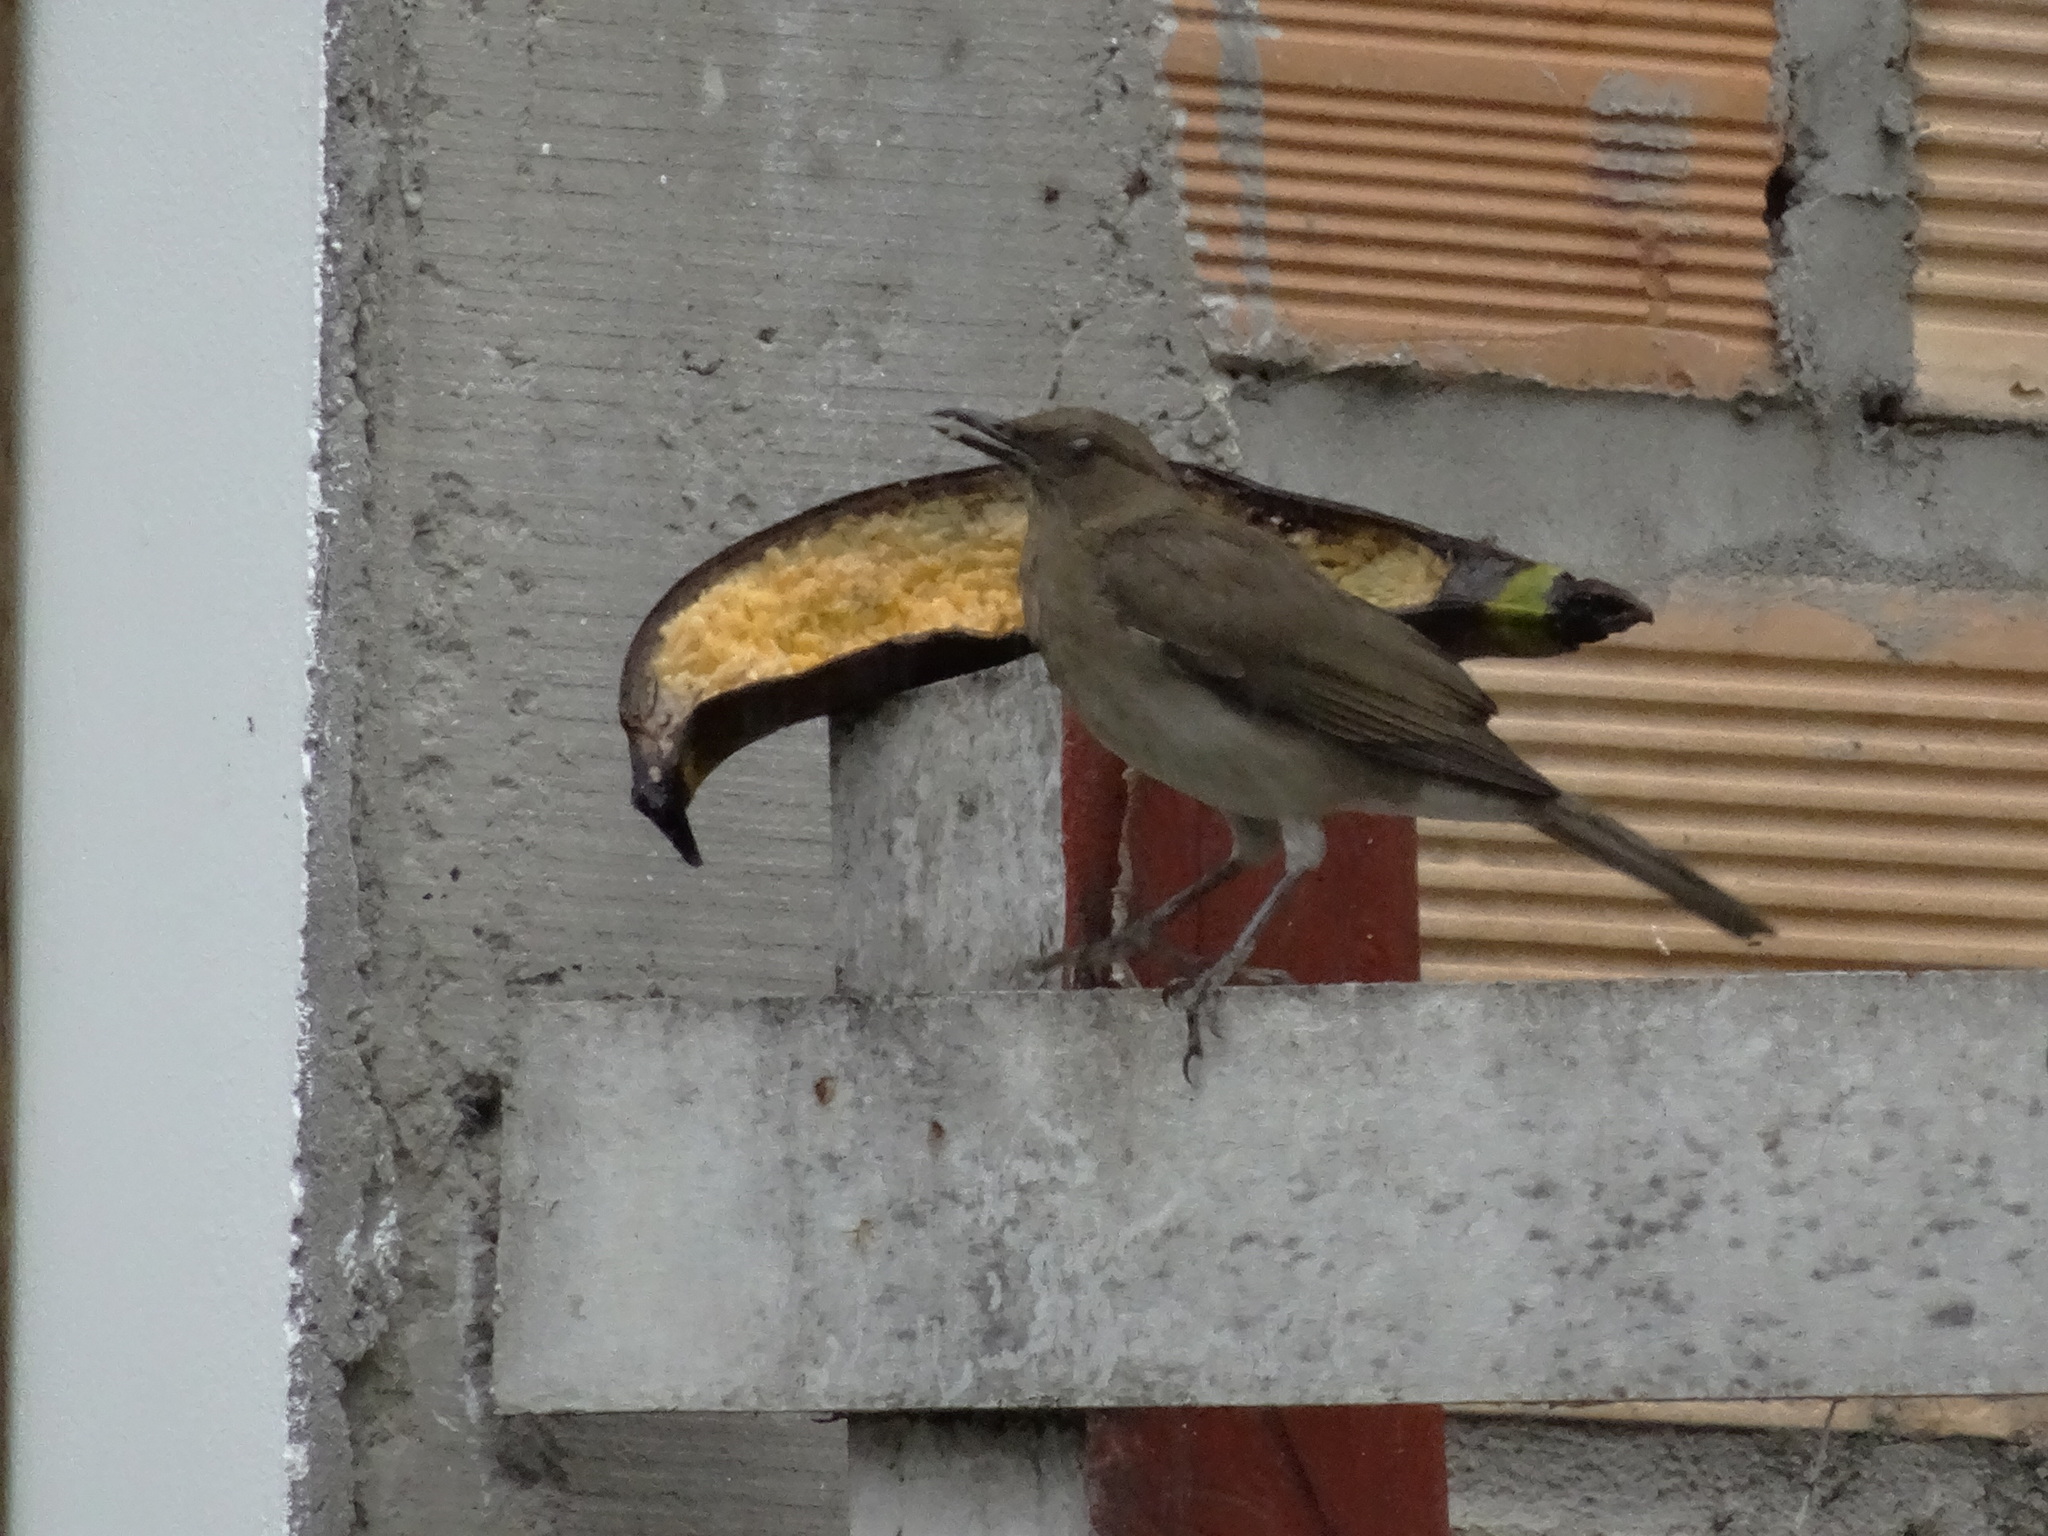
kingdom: Animalia
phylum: Chordata
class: Aves
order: Passeriformes
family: Turdidae
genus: Turdus
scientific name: Turdus ignobilis
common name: Black-billed thrush
